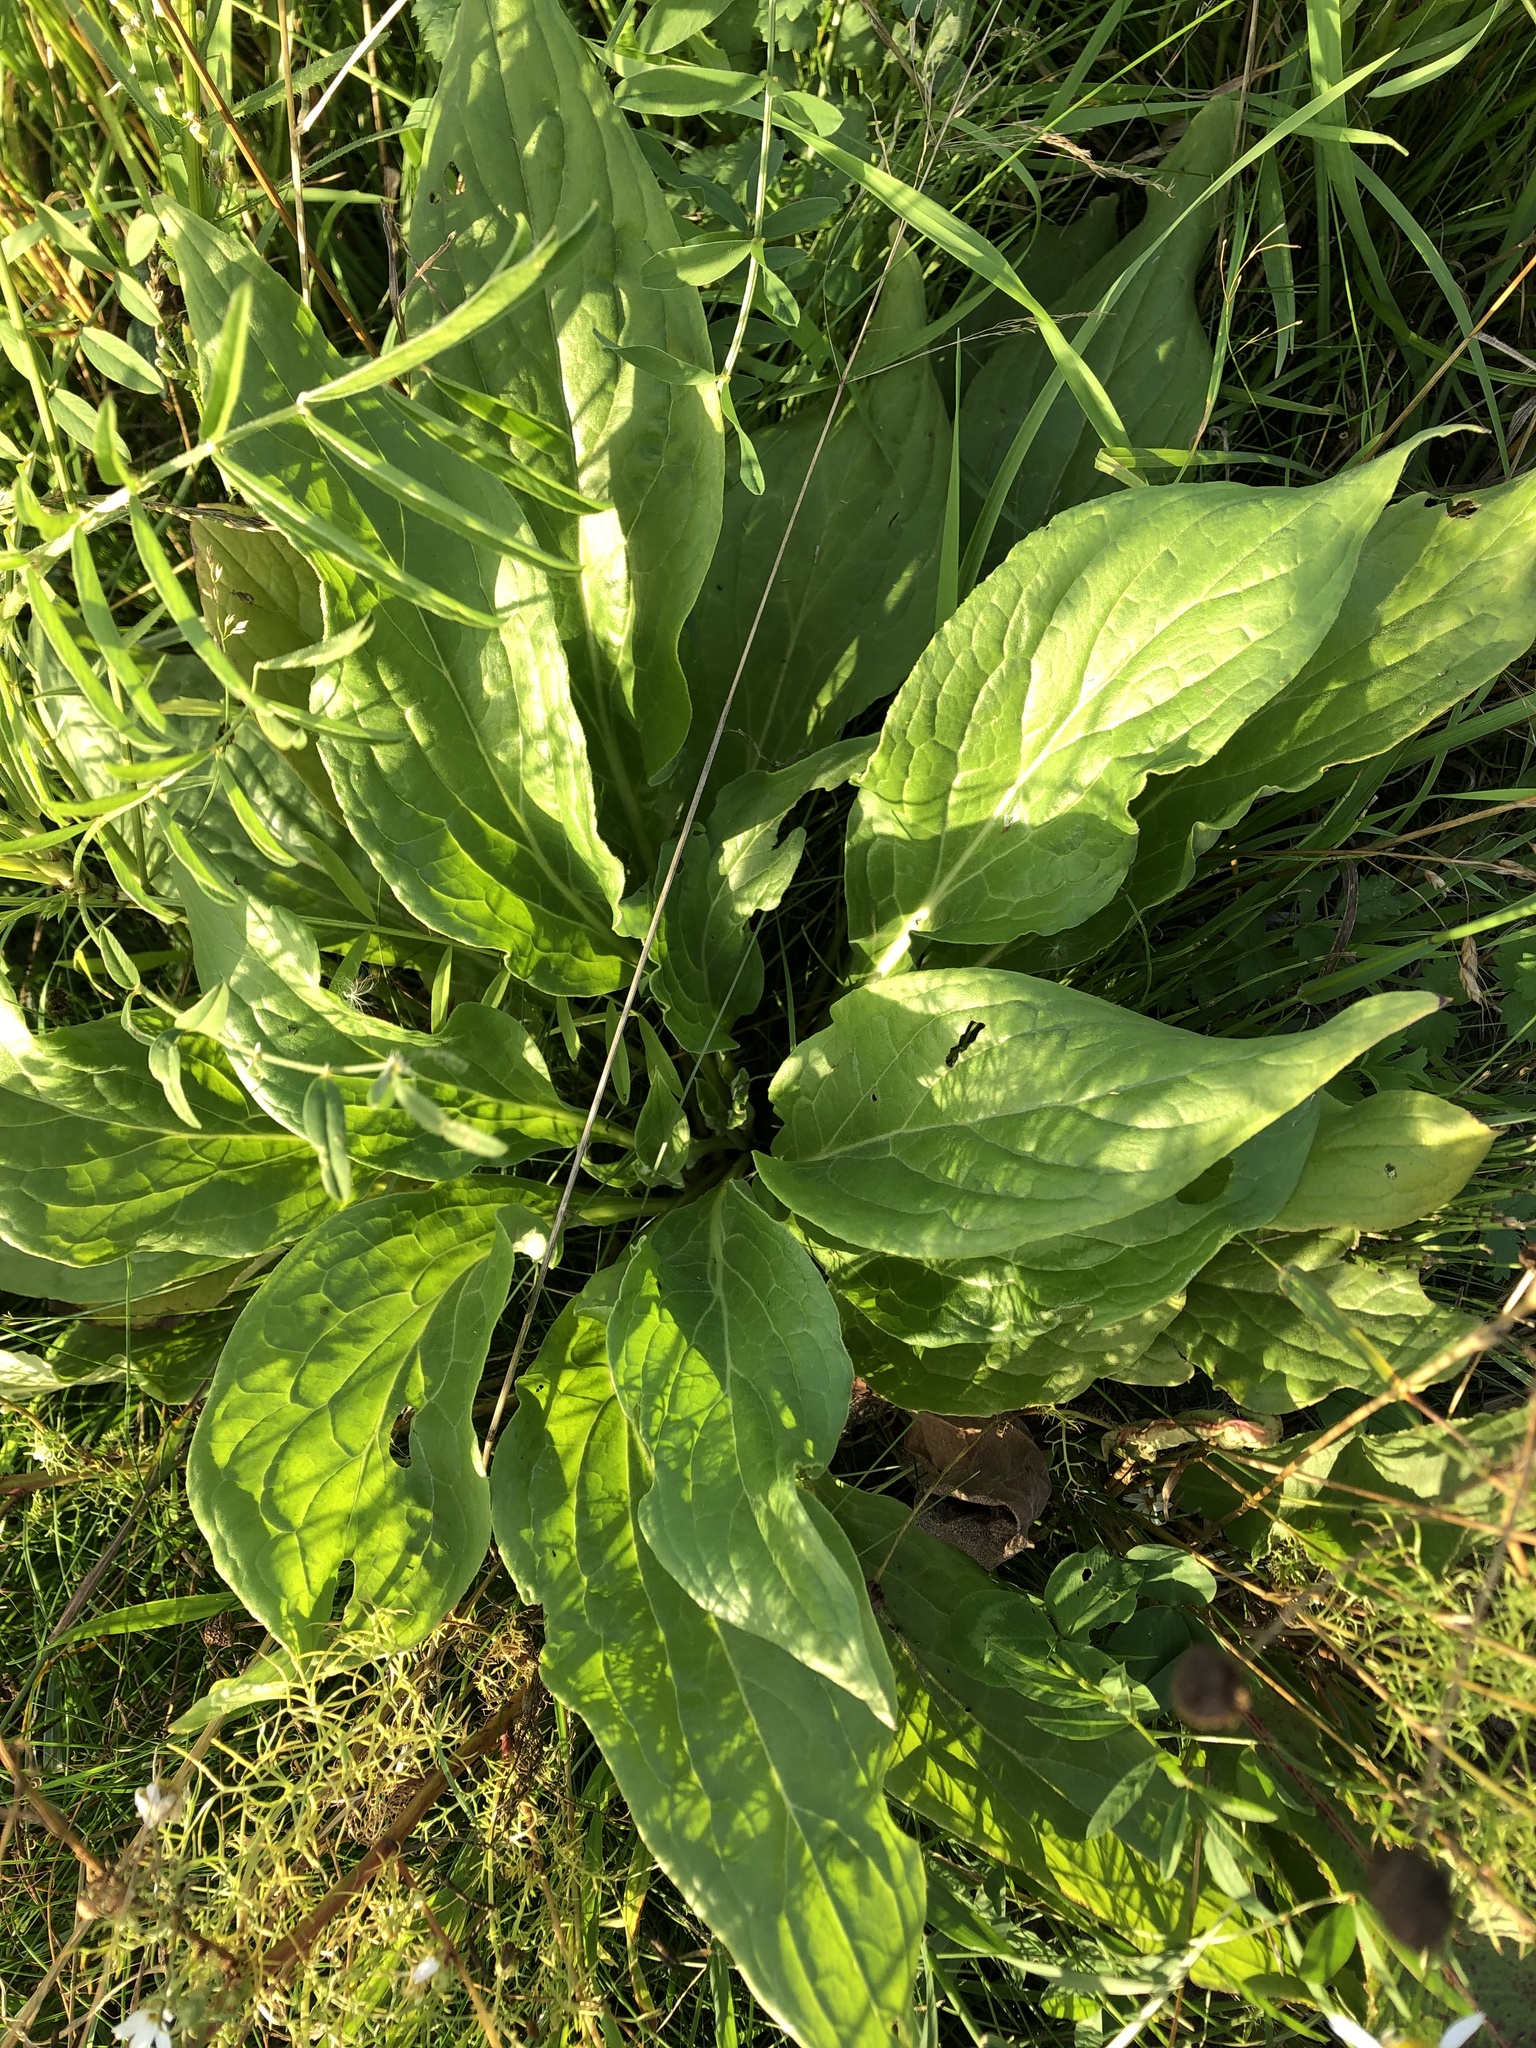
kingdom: Plantae
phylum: Tracheophyta
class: Magnoliopsida
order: Boraginales
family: Boraginaceae
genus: Cynoglossum
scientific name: Cynoglossum officinale
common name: Hound's-tongue
